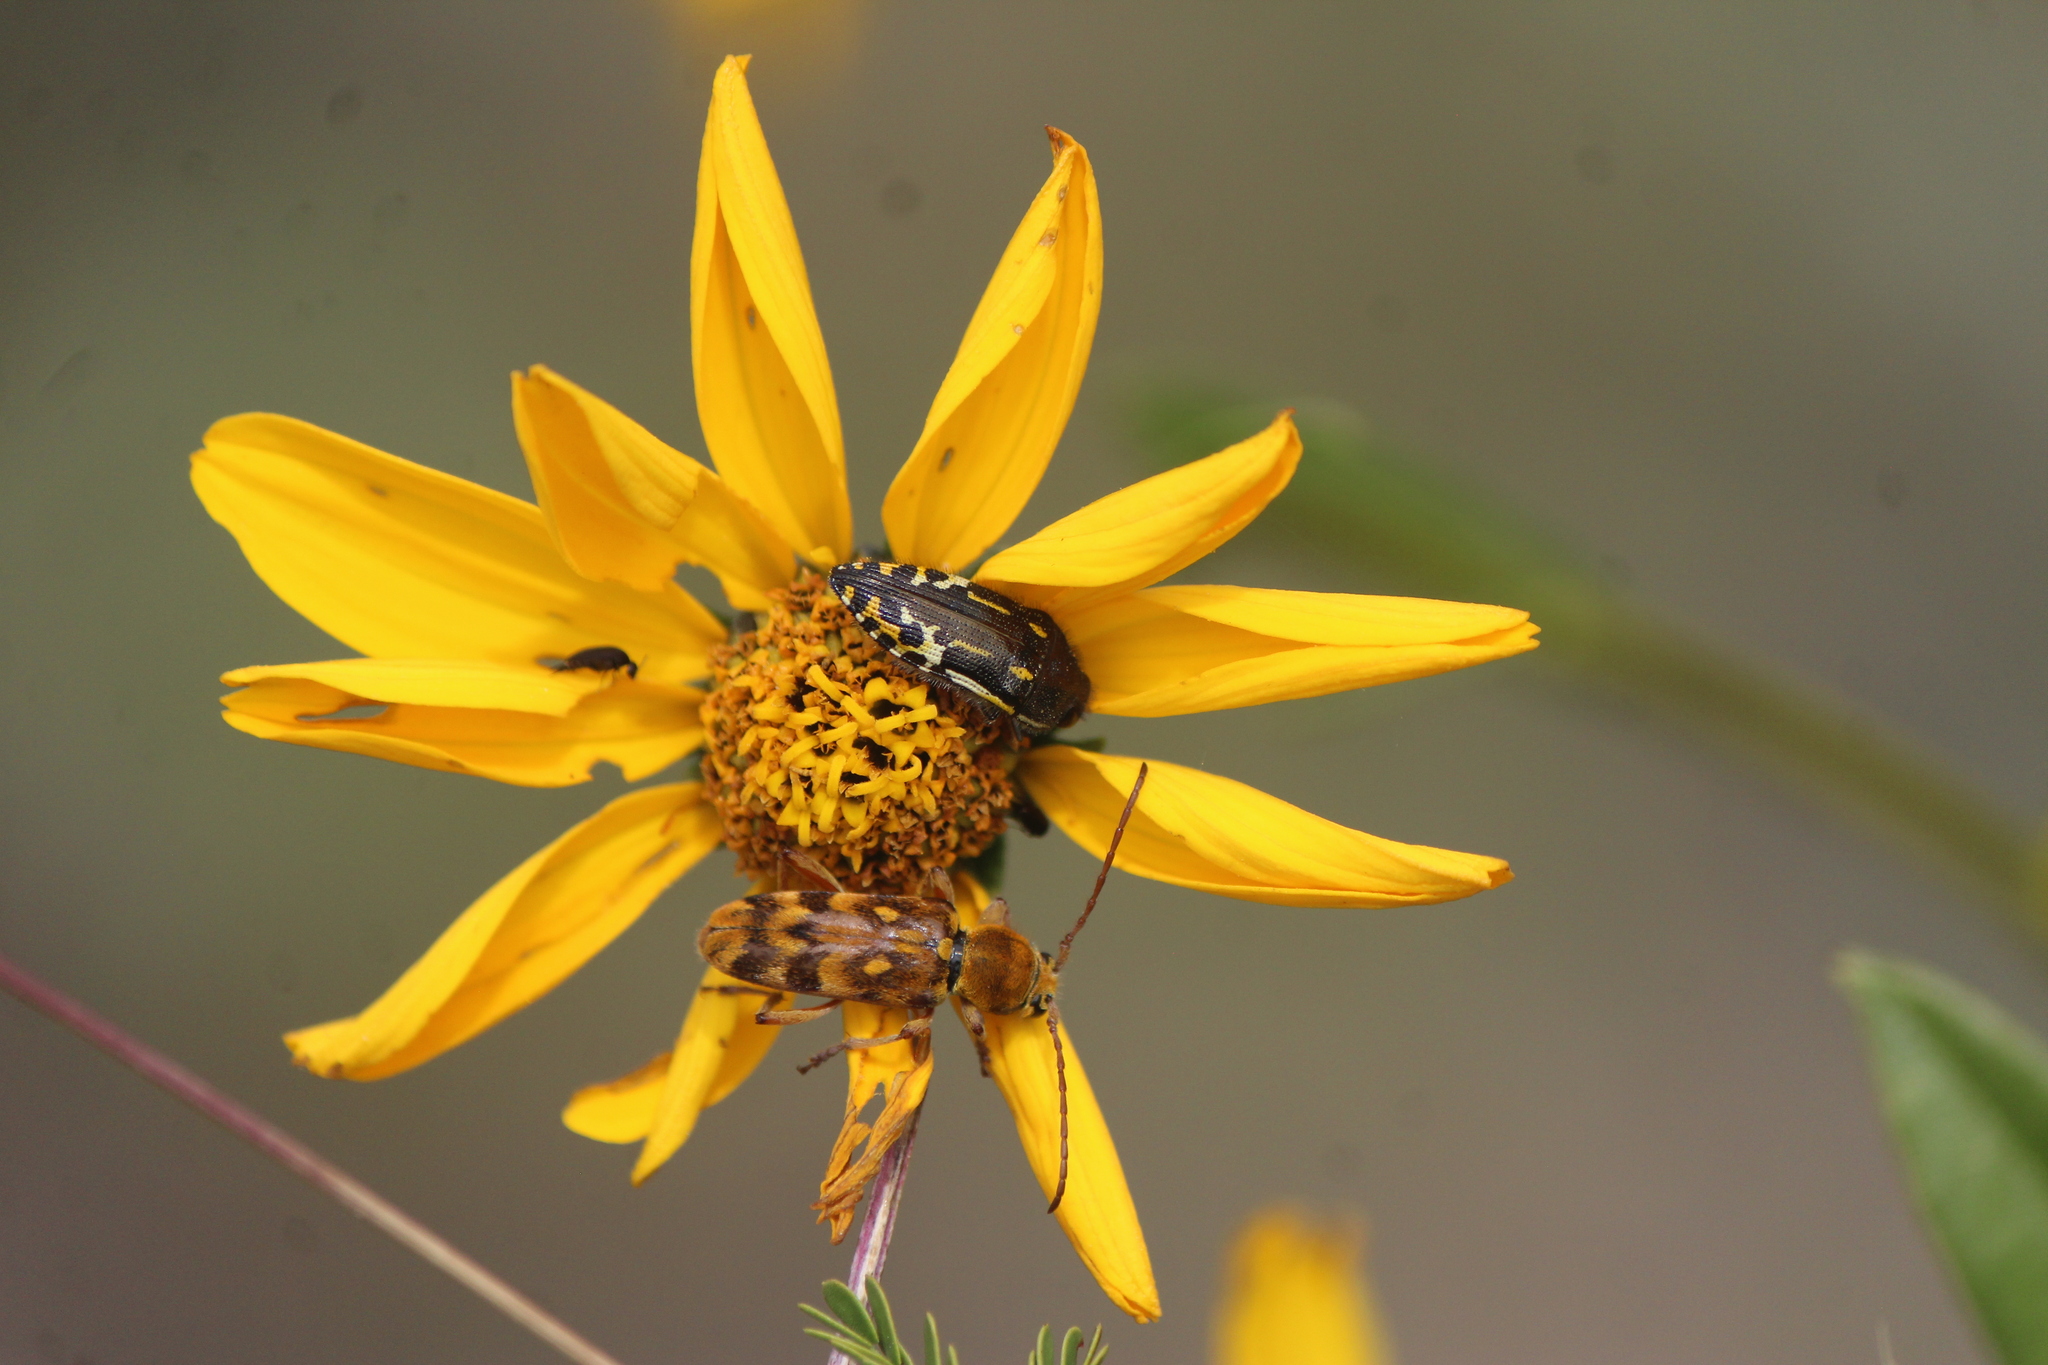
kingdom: Animalia
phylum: Arthropoda
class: Insecta
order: Coleoptera
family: Cerambycidae
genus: Ochraethes
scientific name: Ochraethes sommeri
